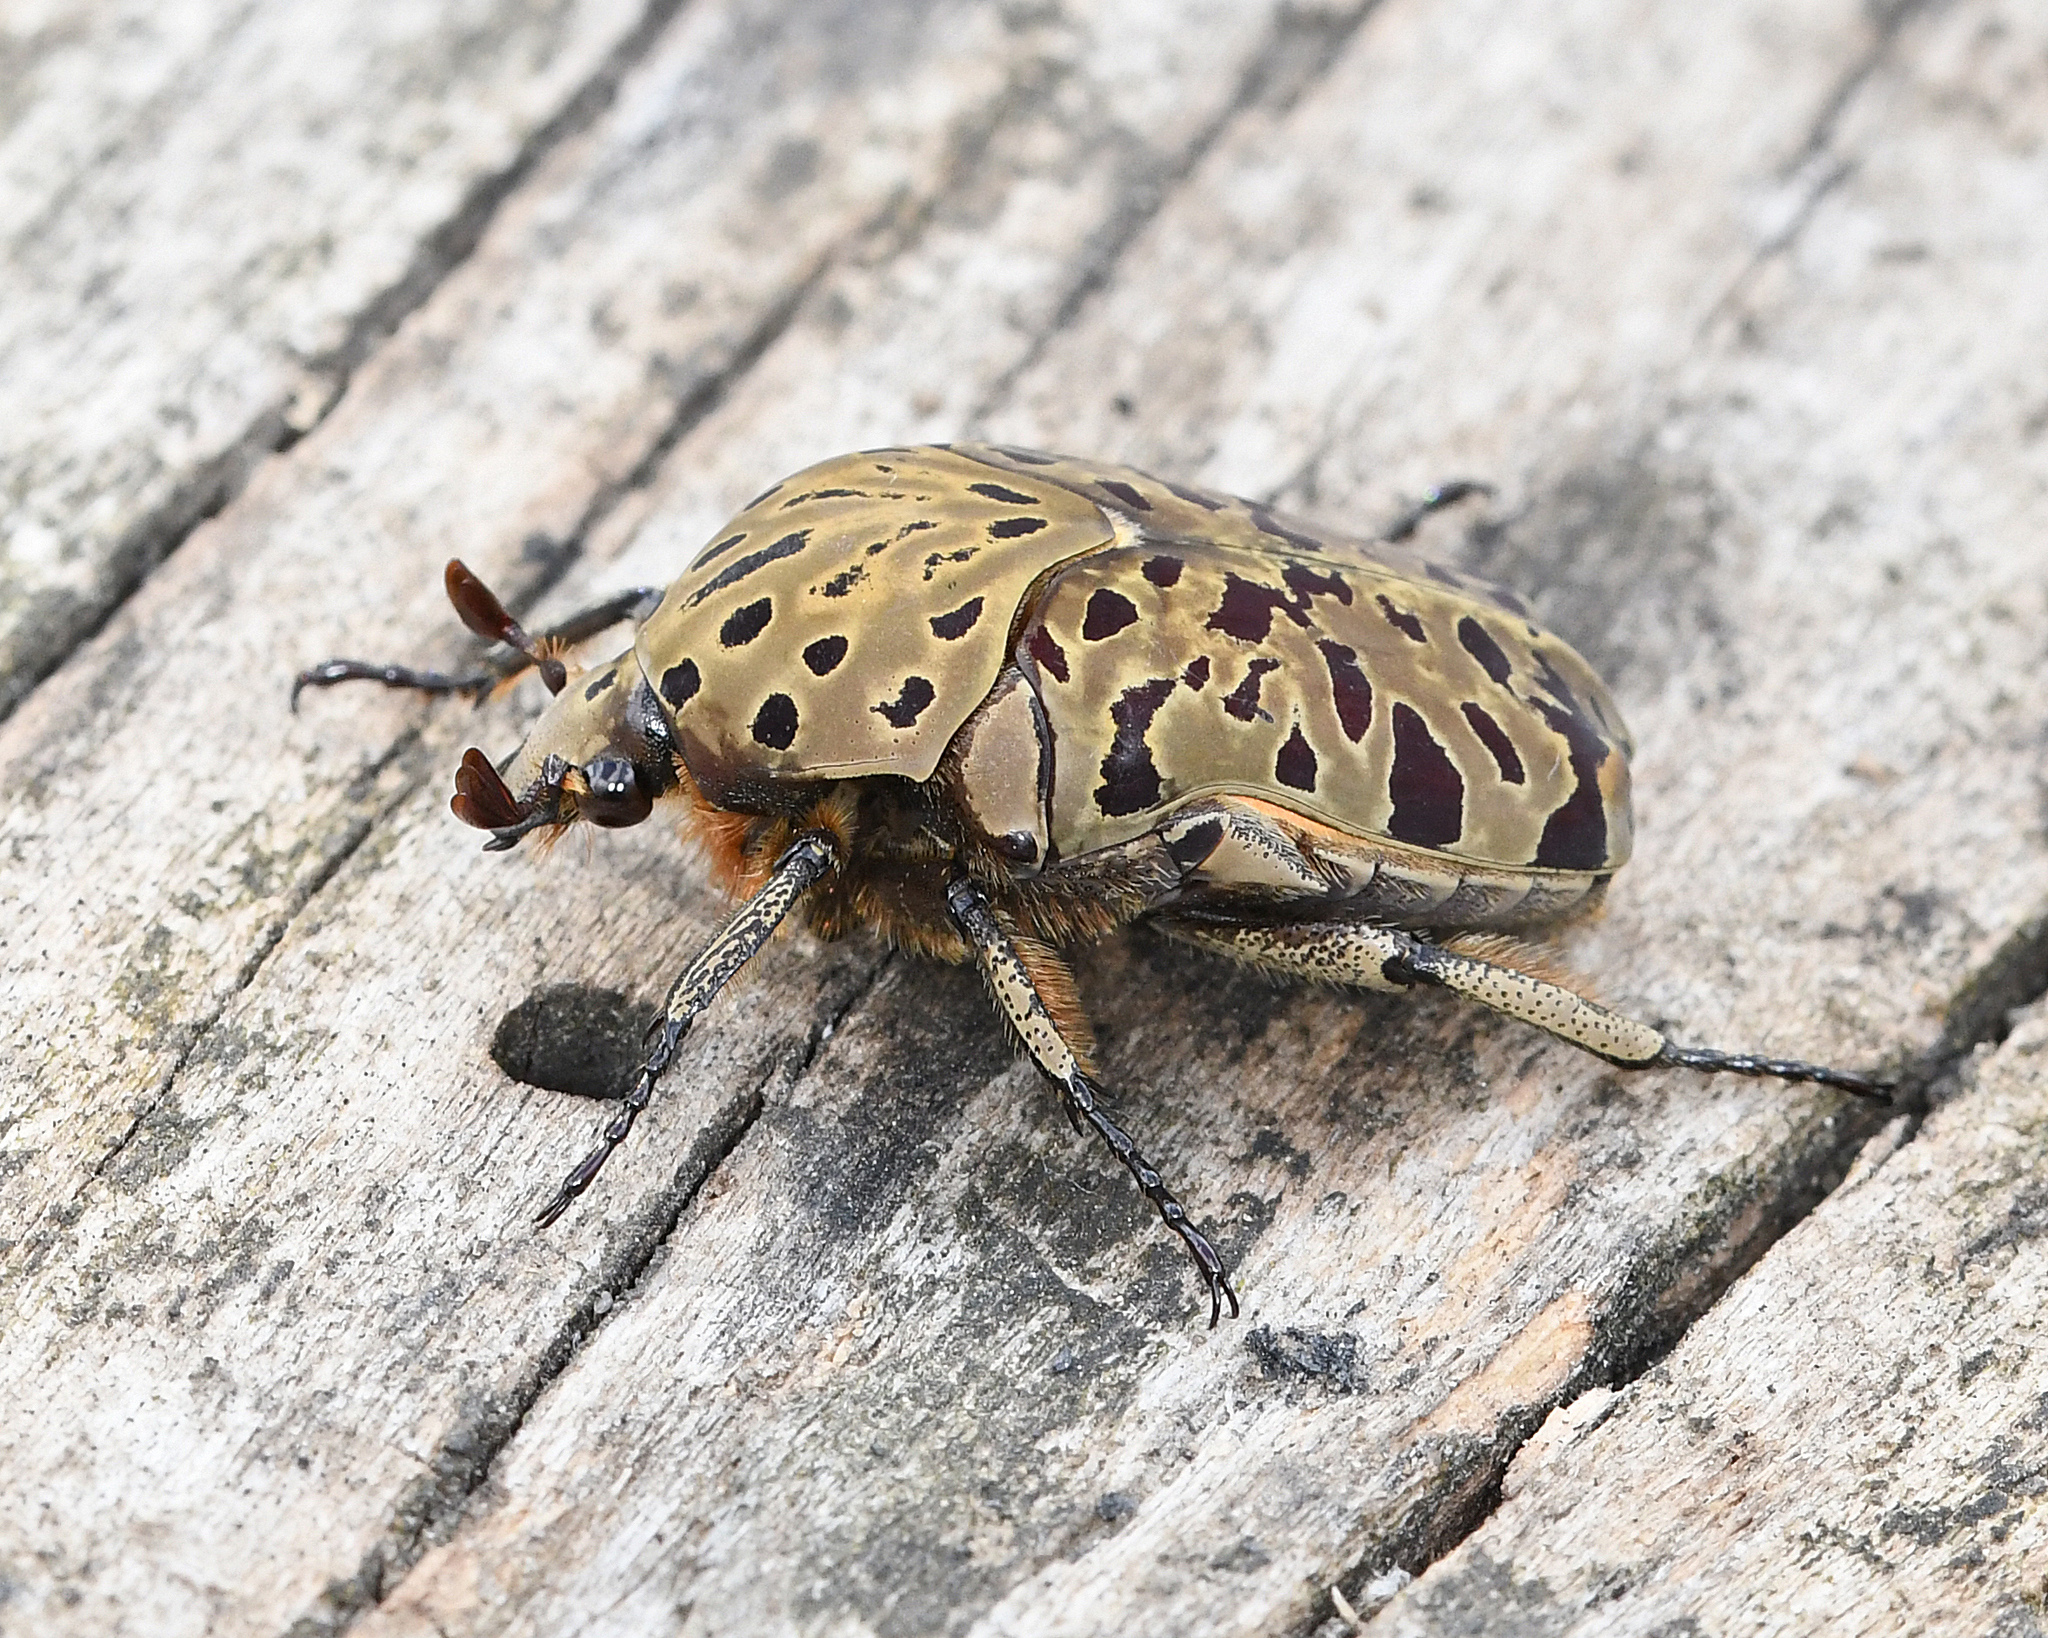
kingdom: Animalia
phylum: Arthropoda
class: Insecta
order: Coleoptera
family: Scarabaeidae
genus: Gymnetis
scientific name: Gymnetis pantherina
